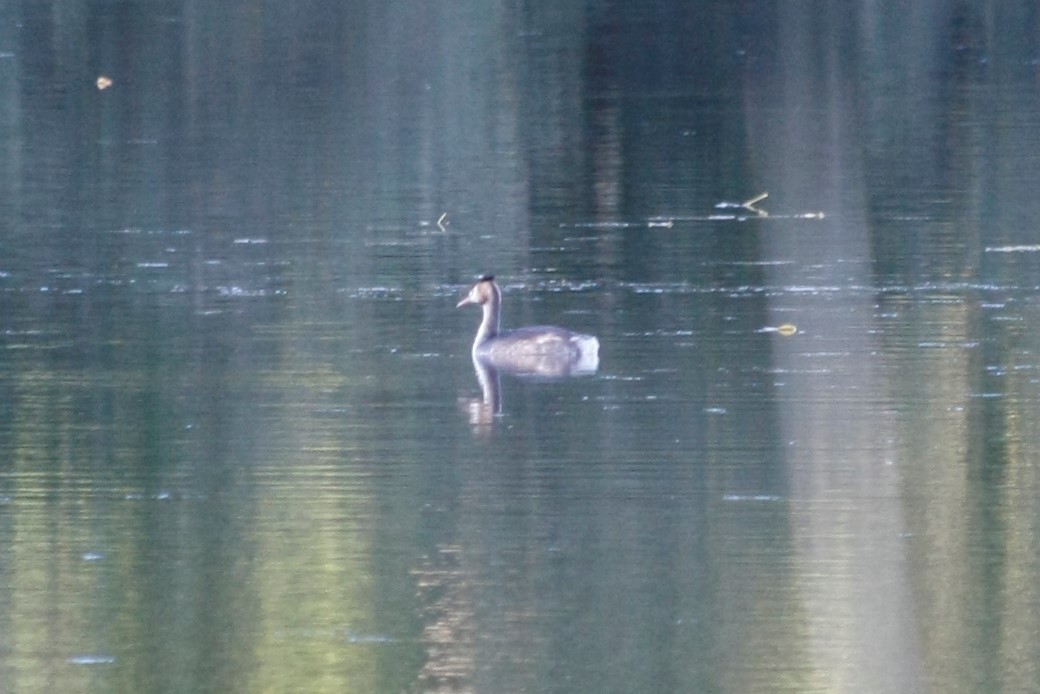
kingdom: Animalia
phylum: Chordata
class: Aves
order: Podicipediformes
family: Podicipedidae
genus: Podiceps
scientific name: Podiceps cristatus
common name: Great crested grebe
